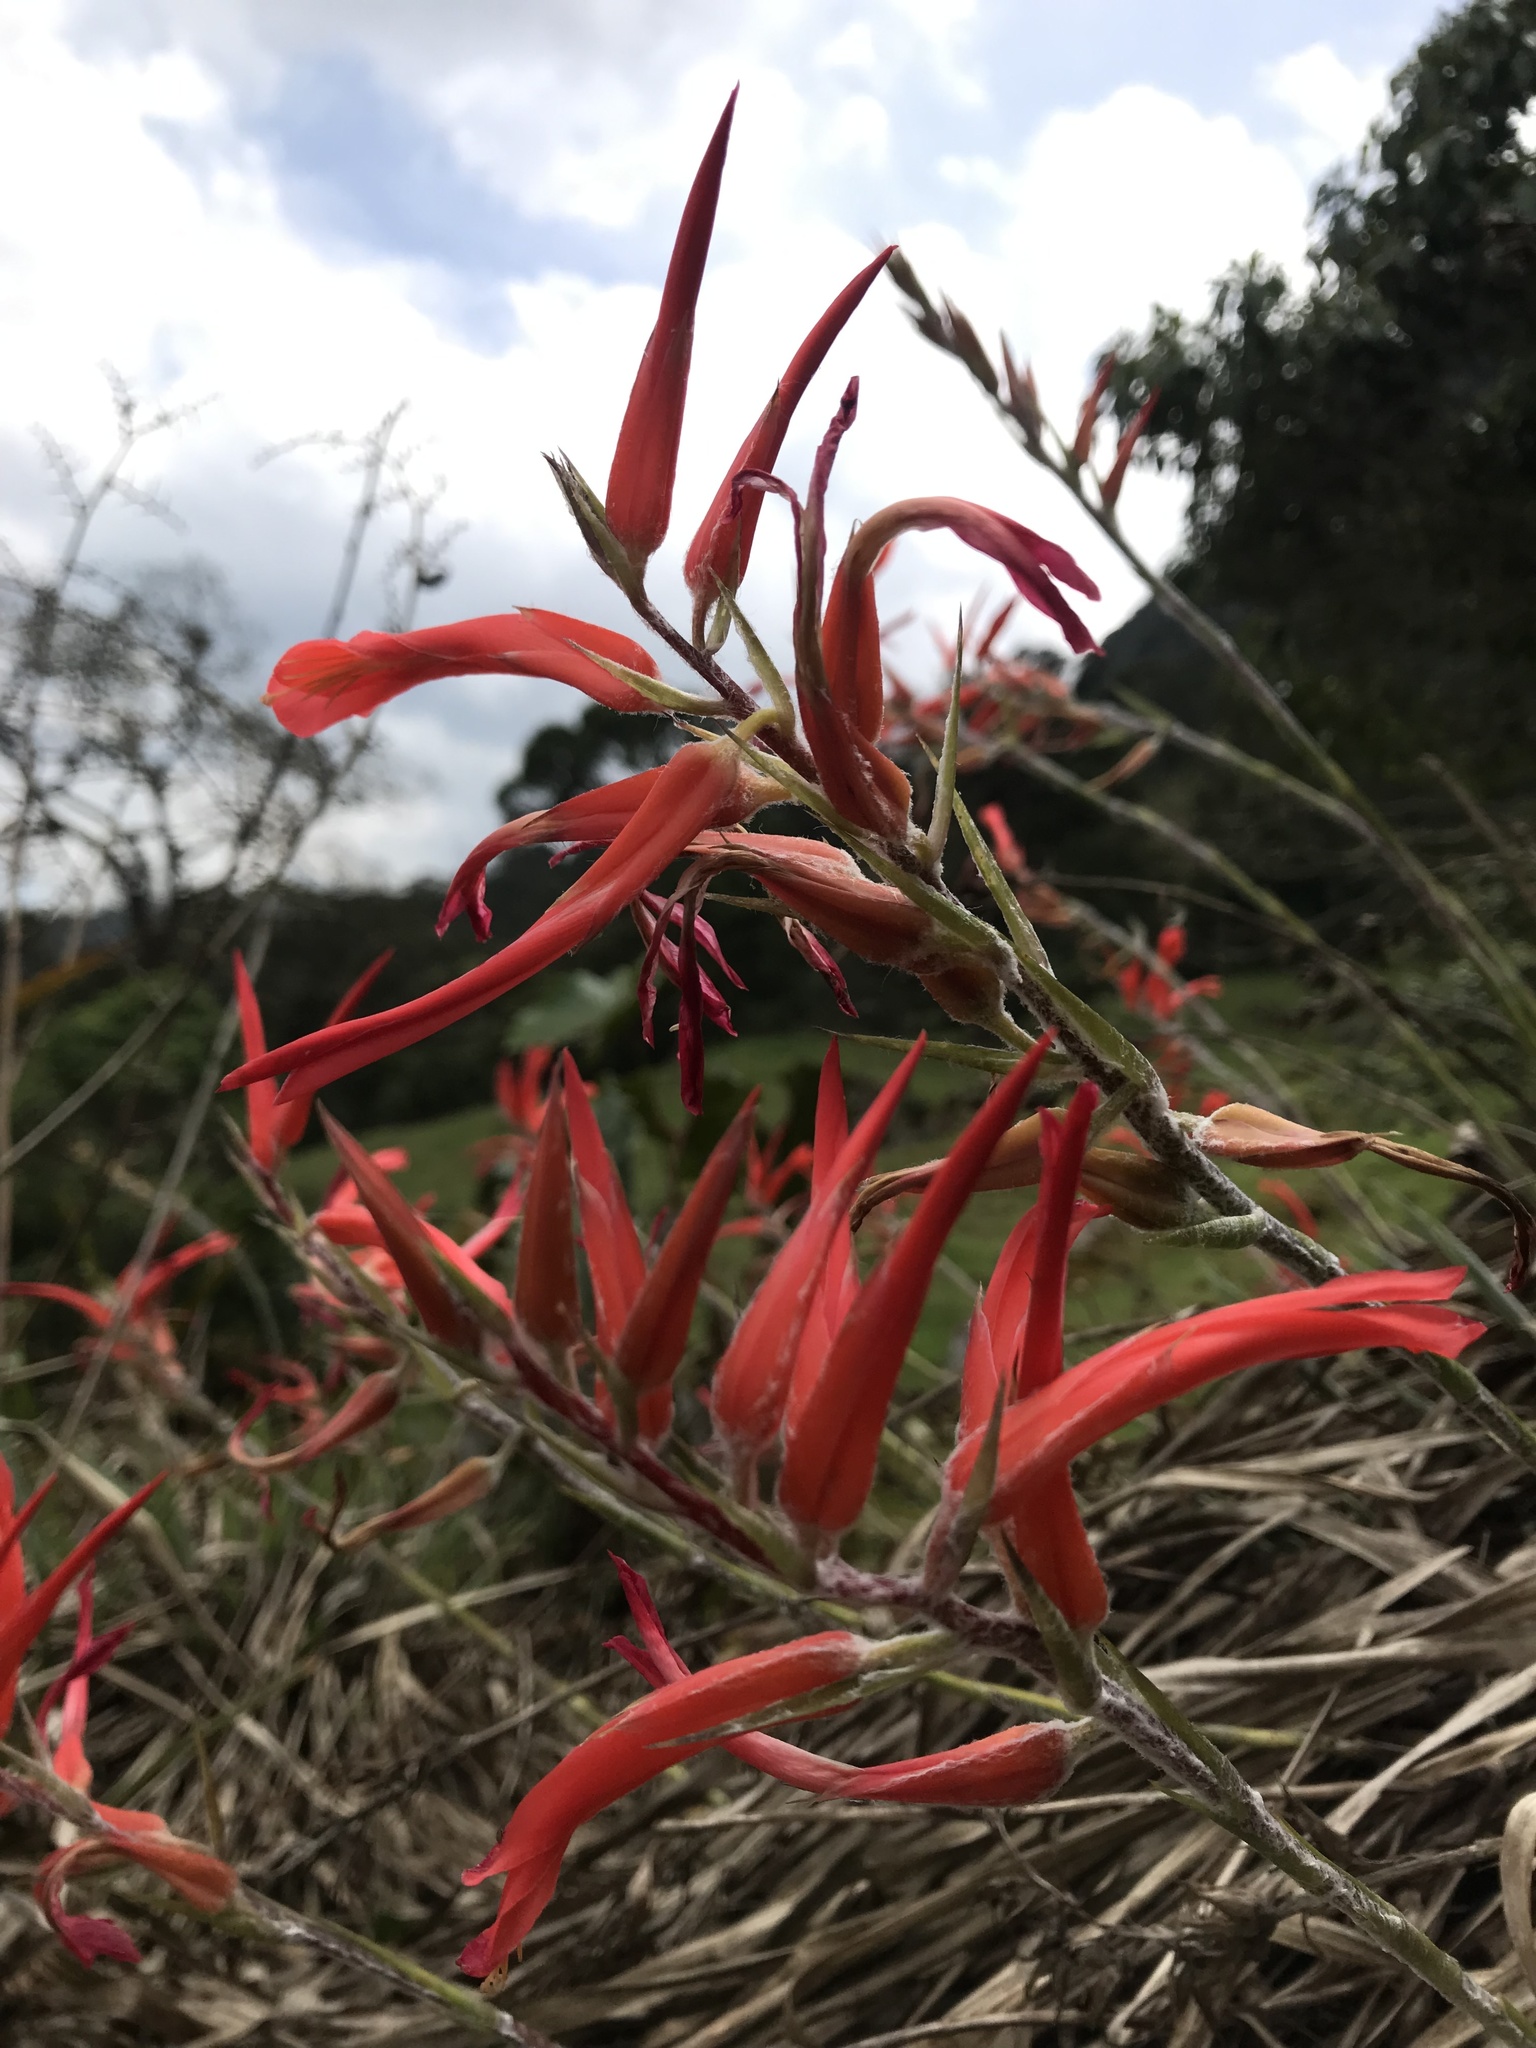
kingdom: Plantae
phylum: Tracheophyta
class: Liliopsida
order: Poales
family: Bromeliaceae
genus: Pitcairnia
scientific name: Pitcairnia pungens
